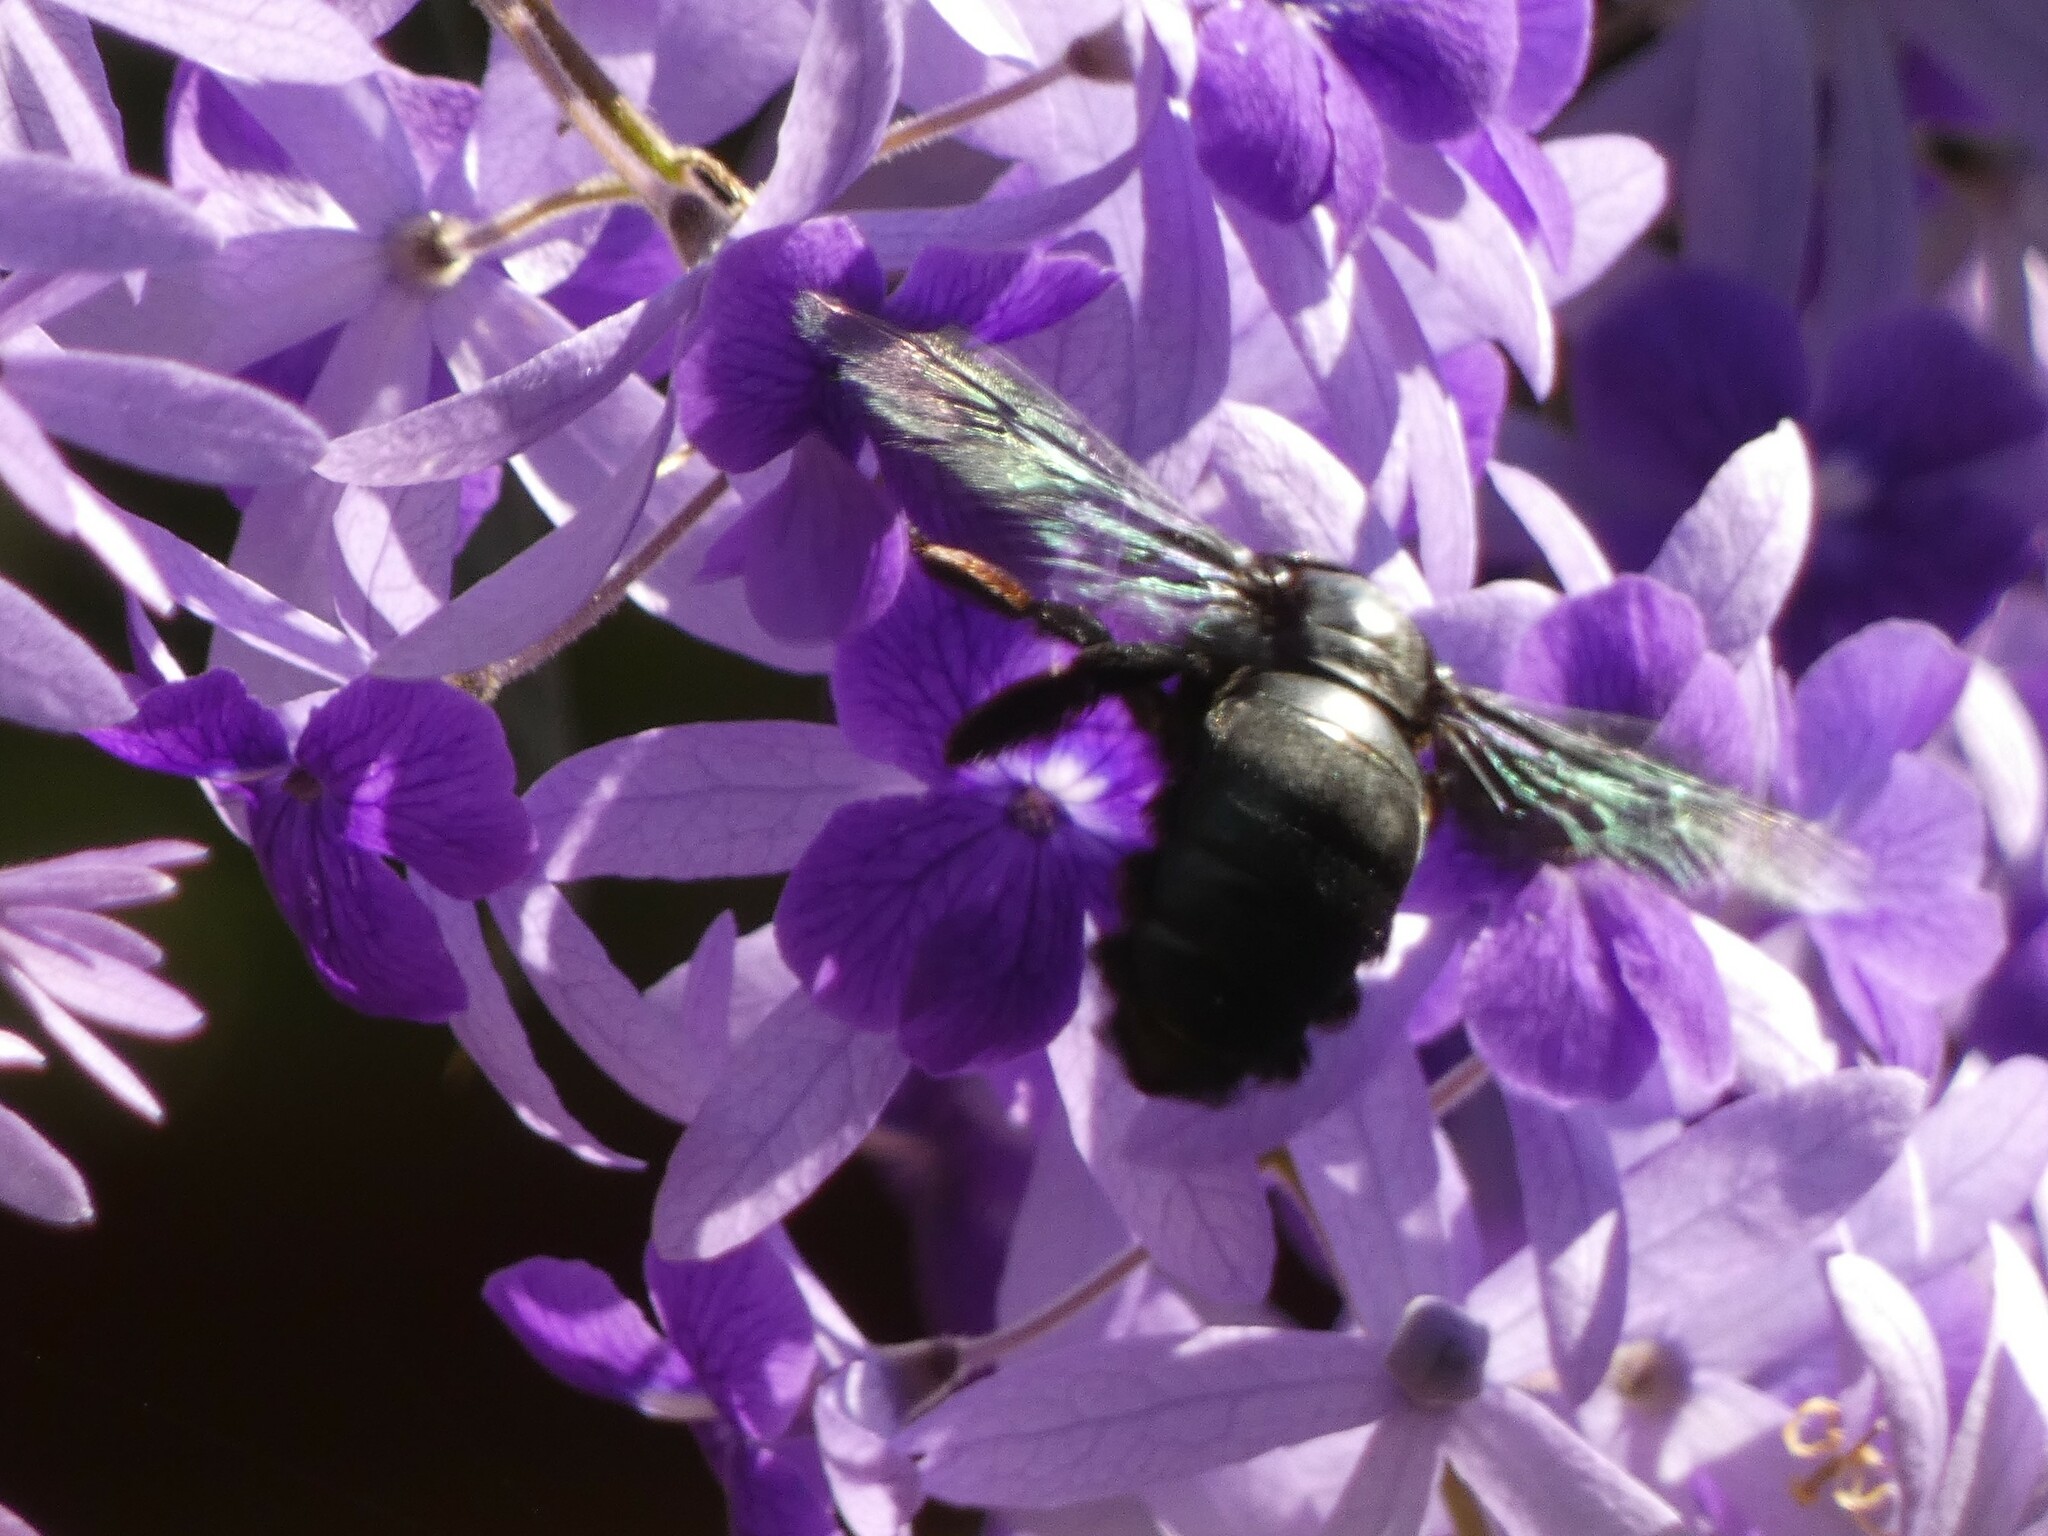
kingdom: Animalia
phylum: Arthropoda
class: Insecta
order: Hymenoptera
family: Apidae
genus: Xylocopa
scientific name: Xylocopa latipes
